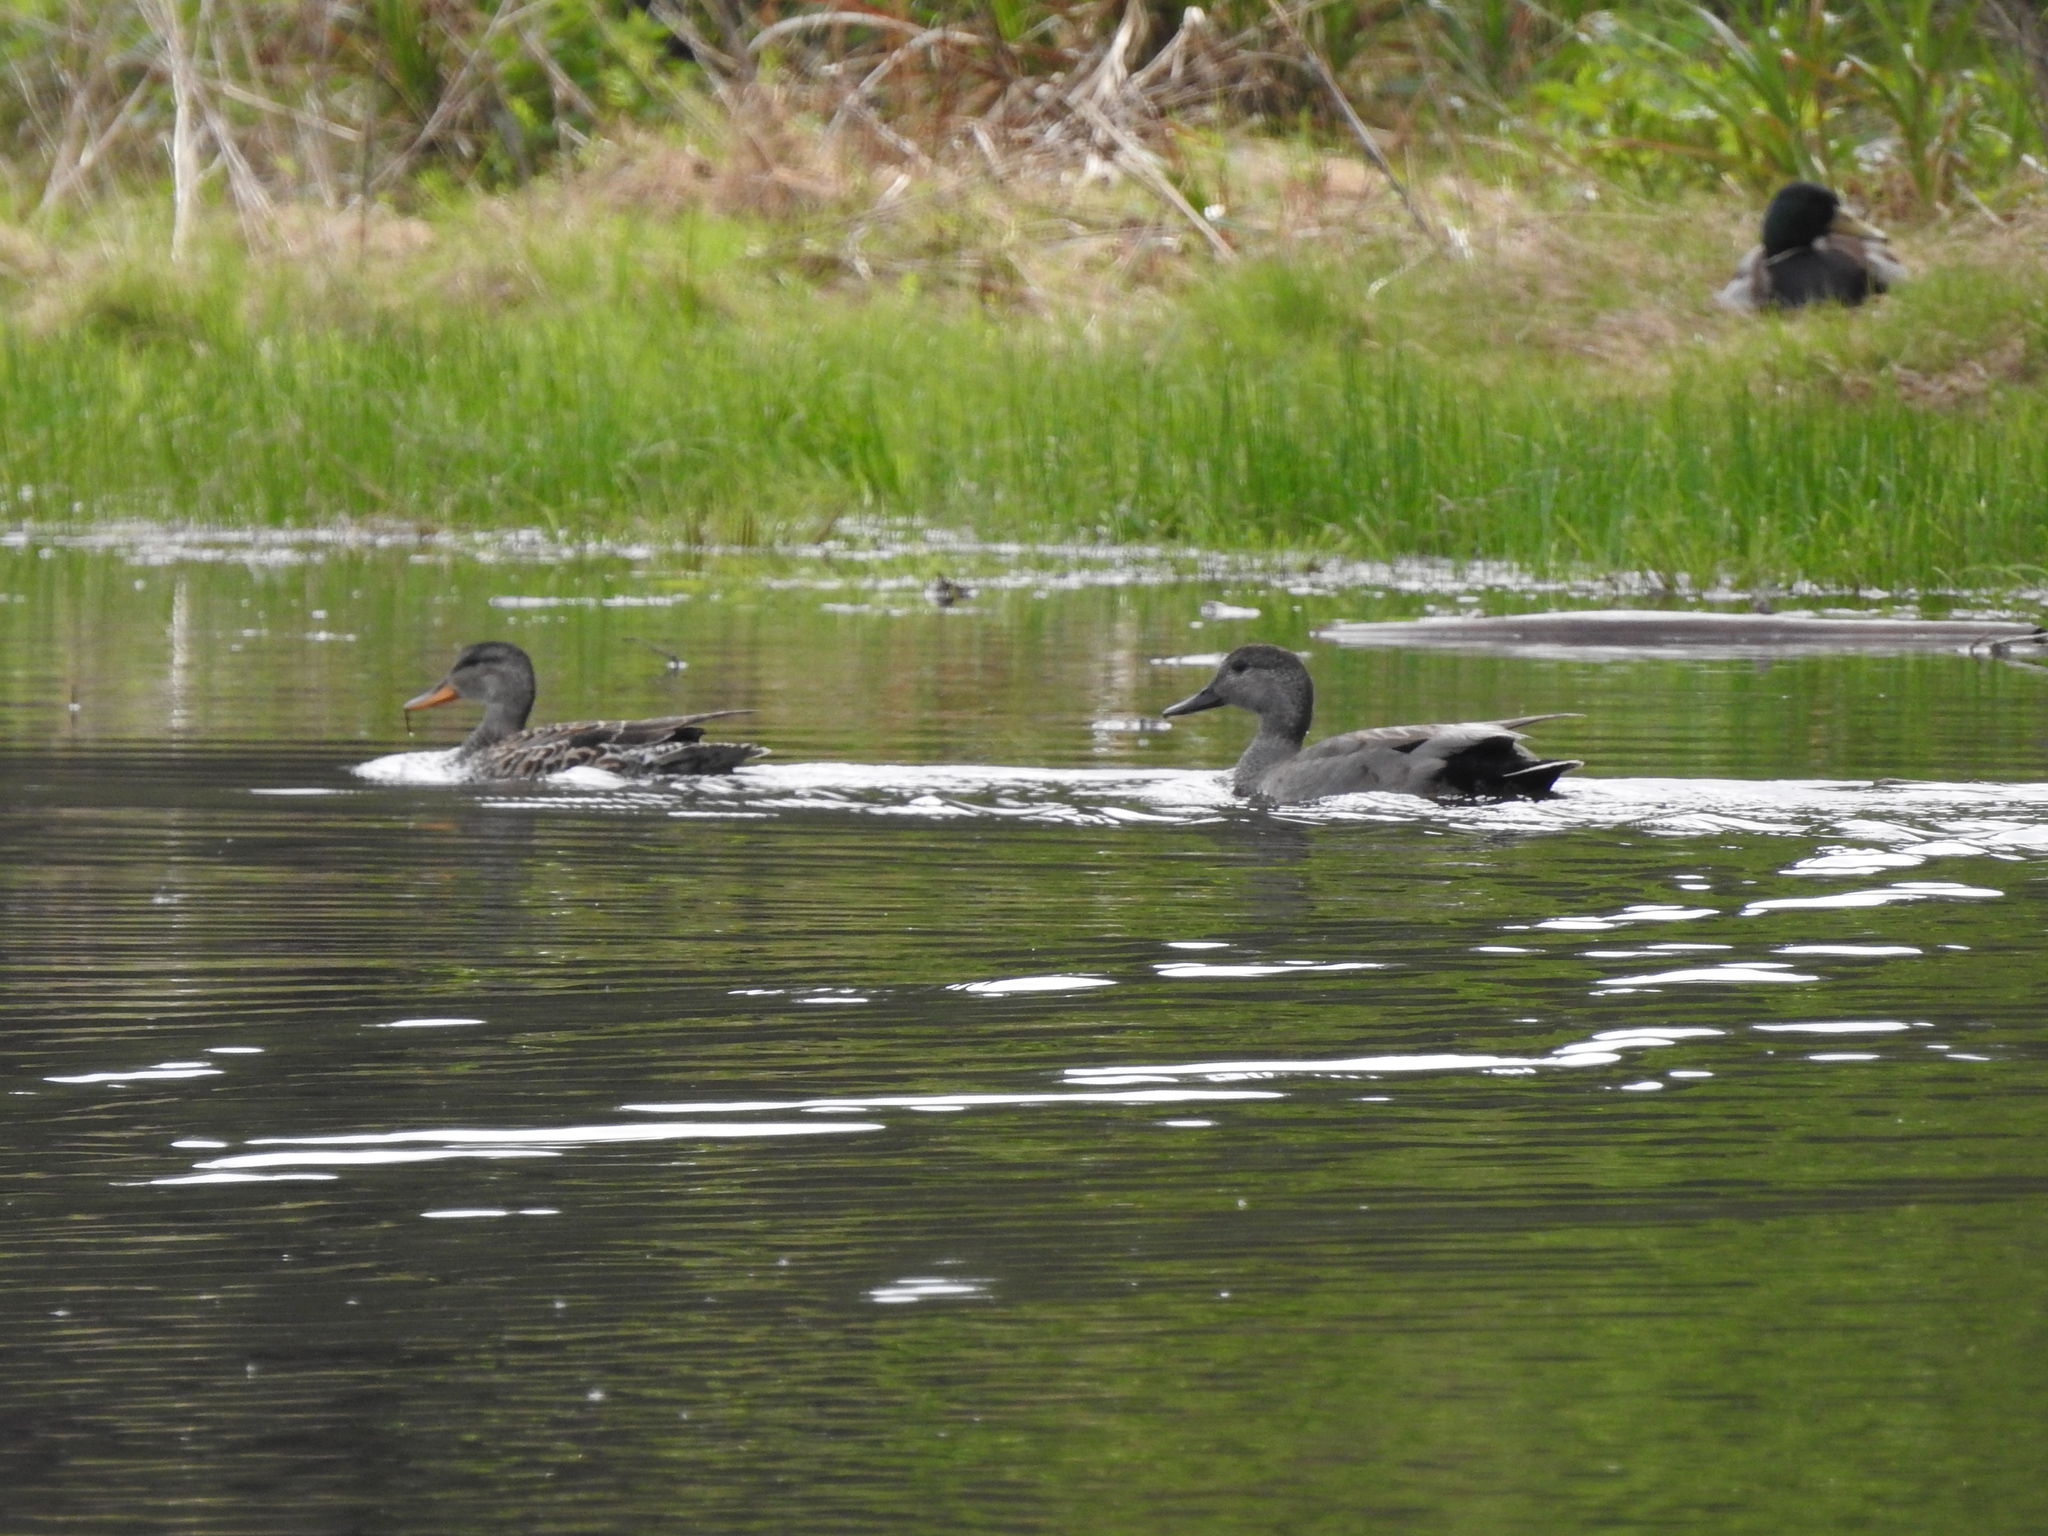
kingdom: Animalia
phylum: Chordata
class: Aves
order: Anseriformes
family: Anatidae
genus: Mareca
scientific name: Mareca strepera
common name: Gadwall
